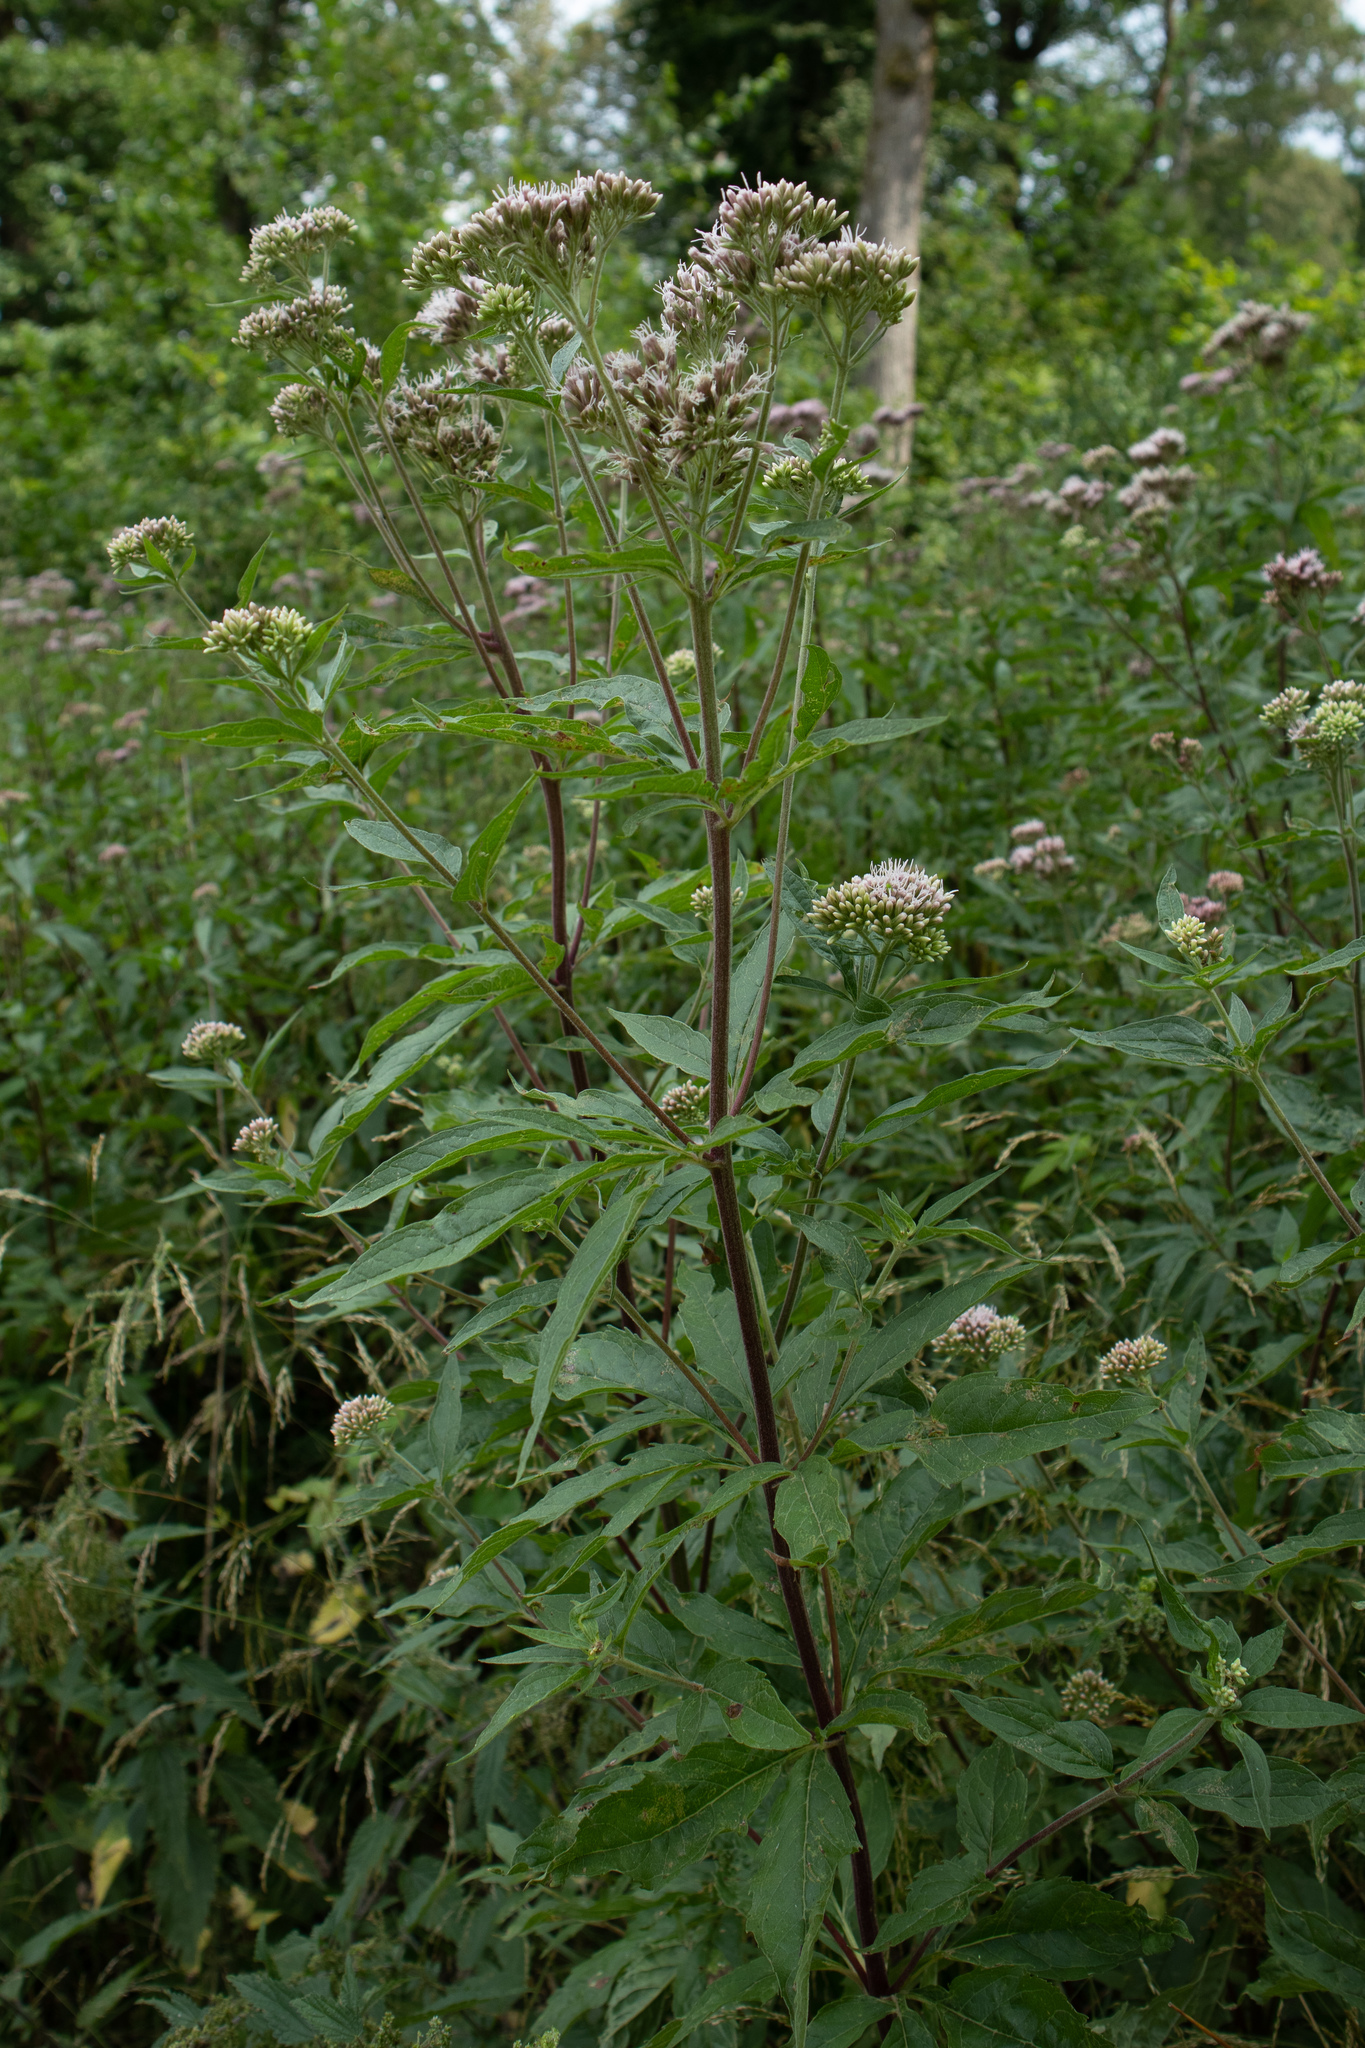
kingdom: Plantae
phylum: Tracheophyta
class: Magnoliopsida
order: Asterales
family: Asteraceae
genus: Eupatorium
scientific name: Eupatorium cannabinum
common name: Hemp-agrimony
